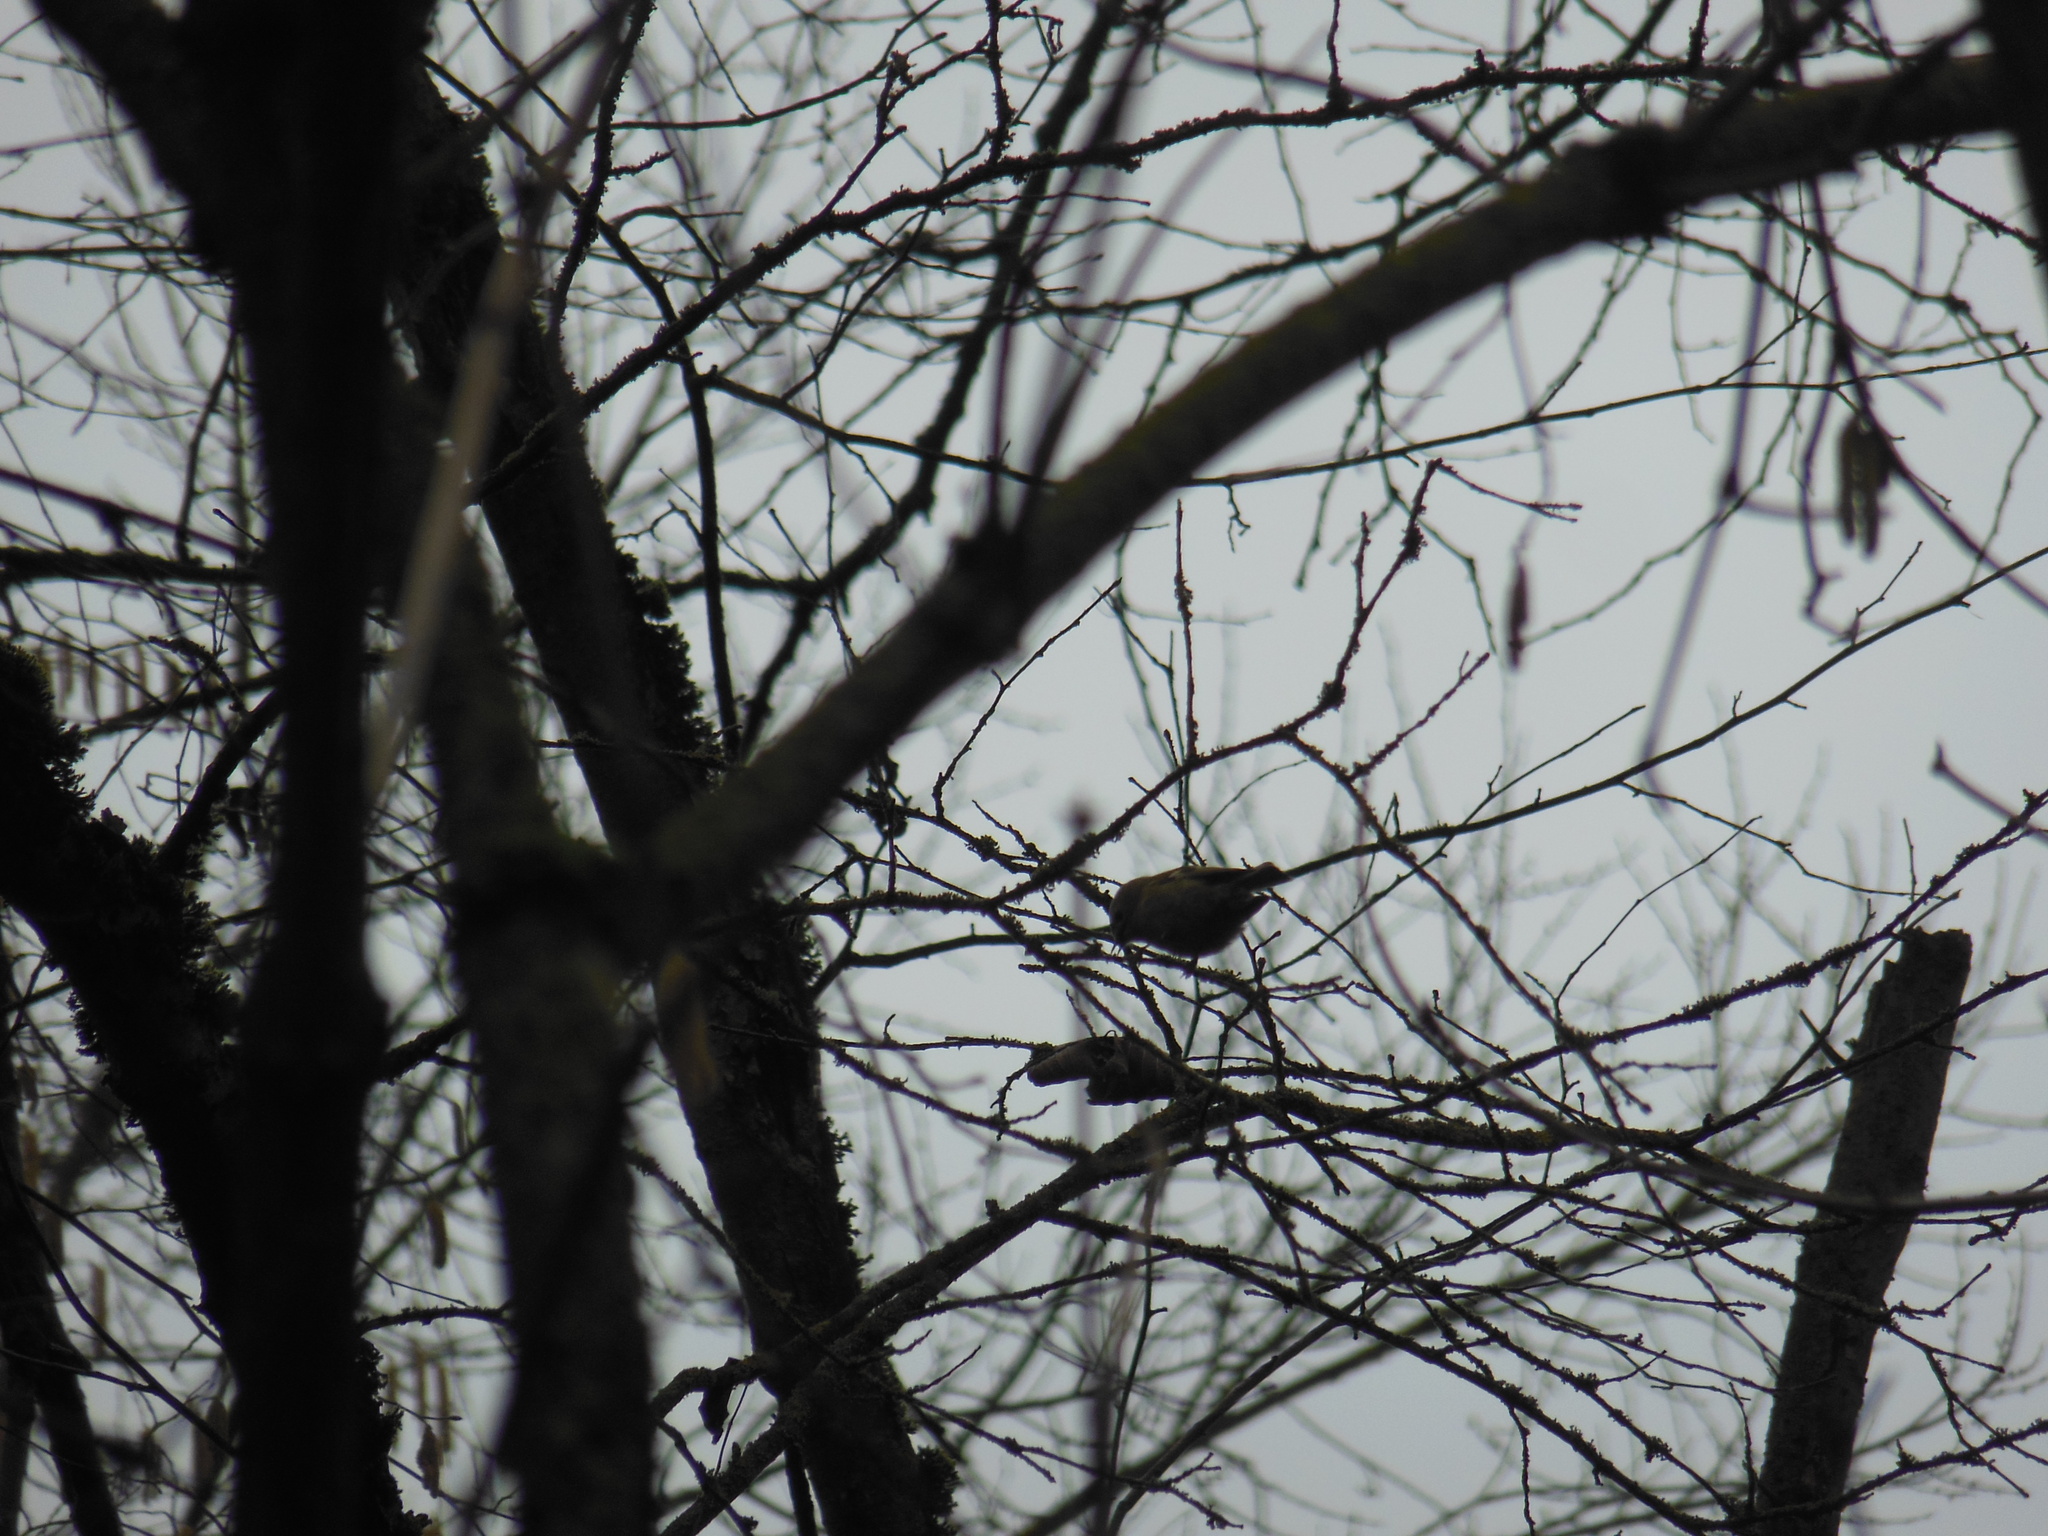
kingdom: Animalia
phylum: Chordata
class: Aves
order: Passeriformes
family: Regulidae
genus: Regulus
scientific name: Regulus regulus
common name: Goldcrest
